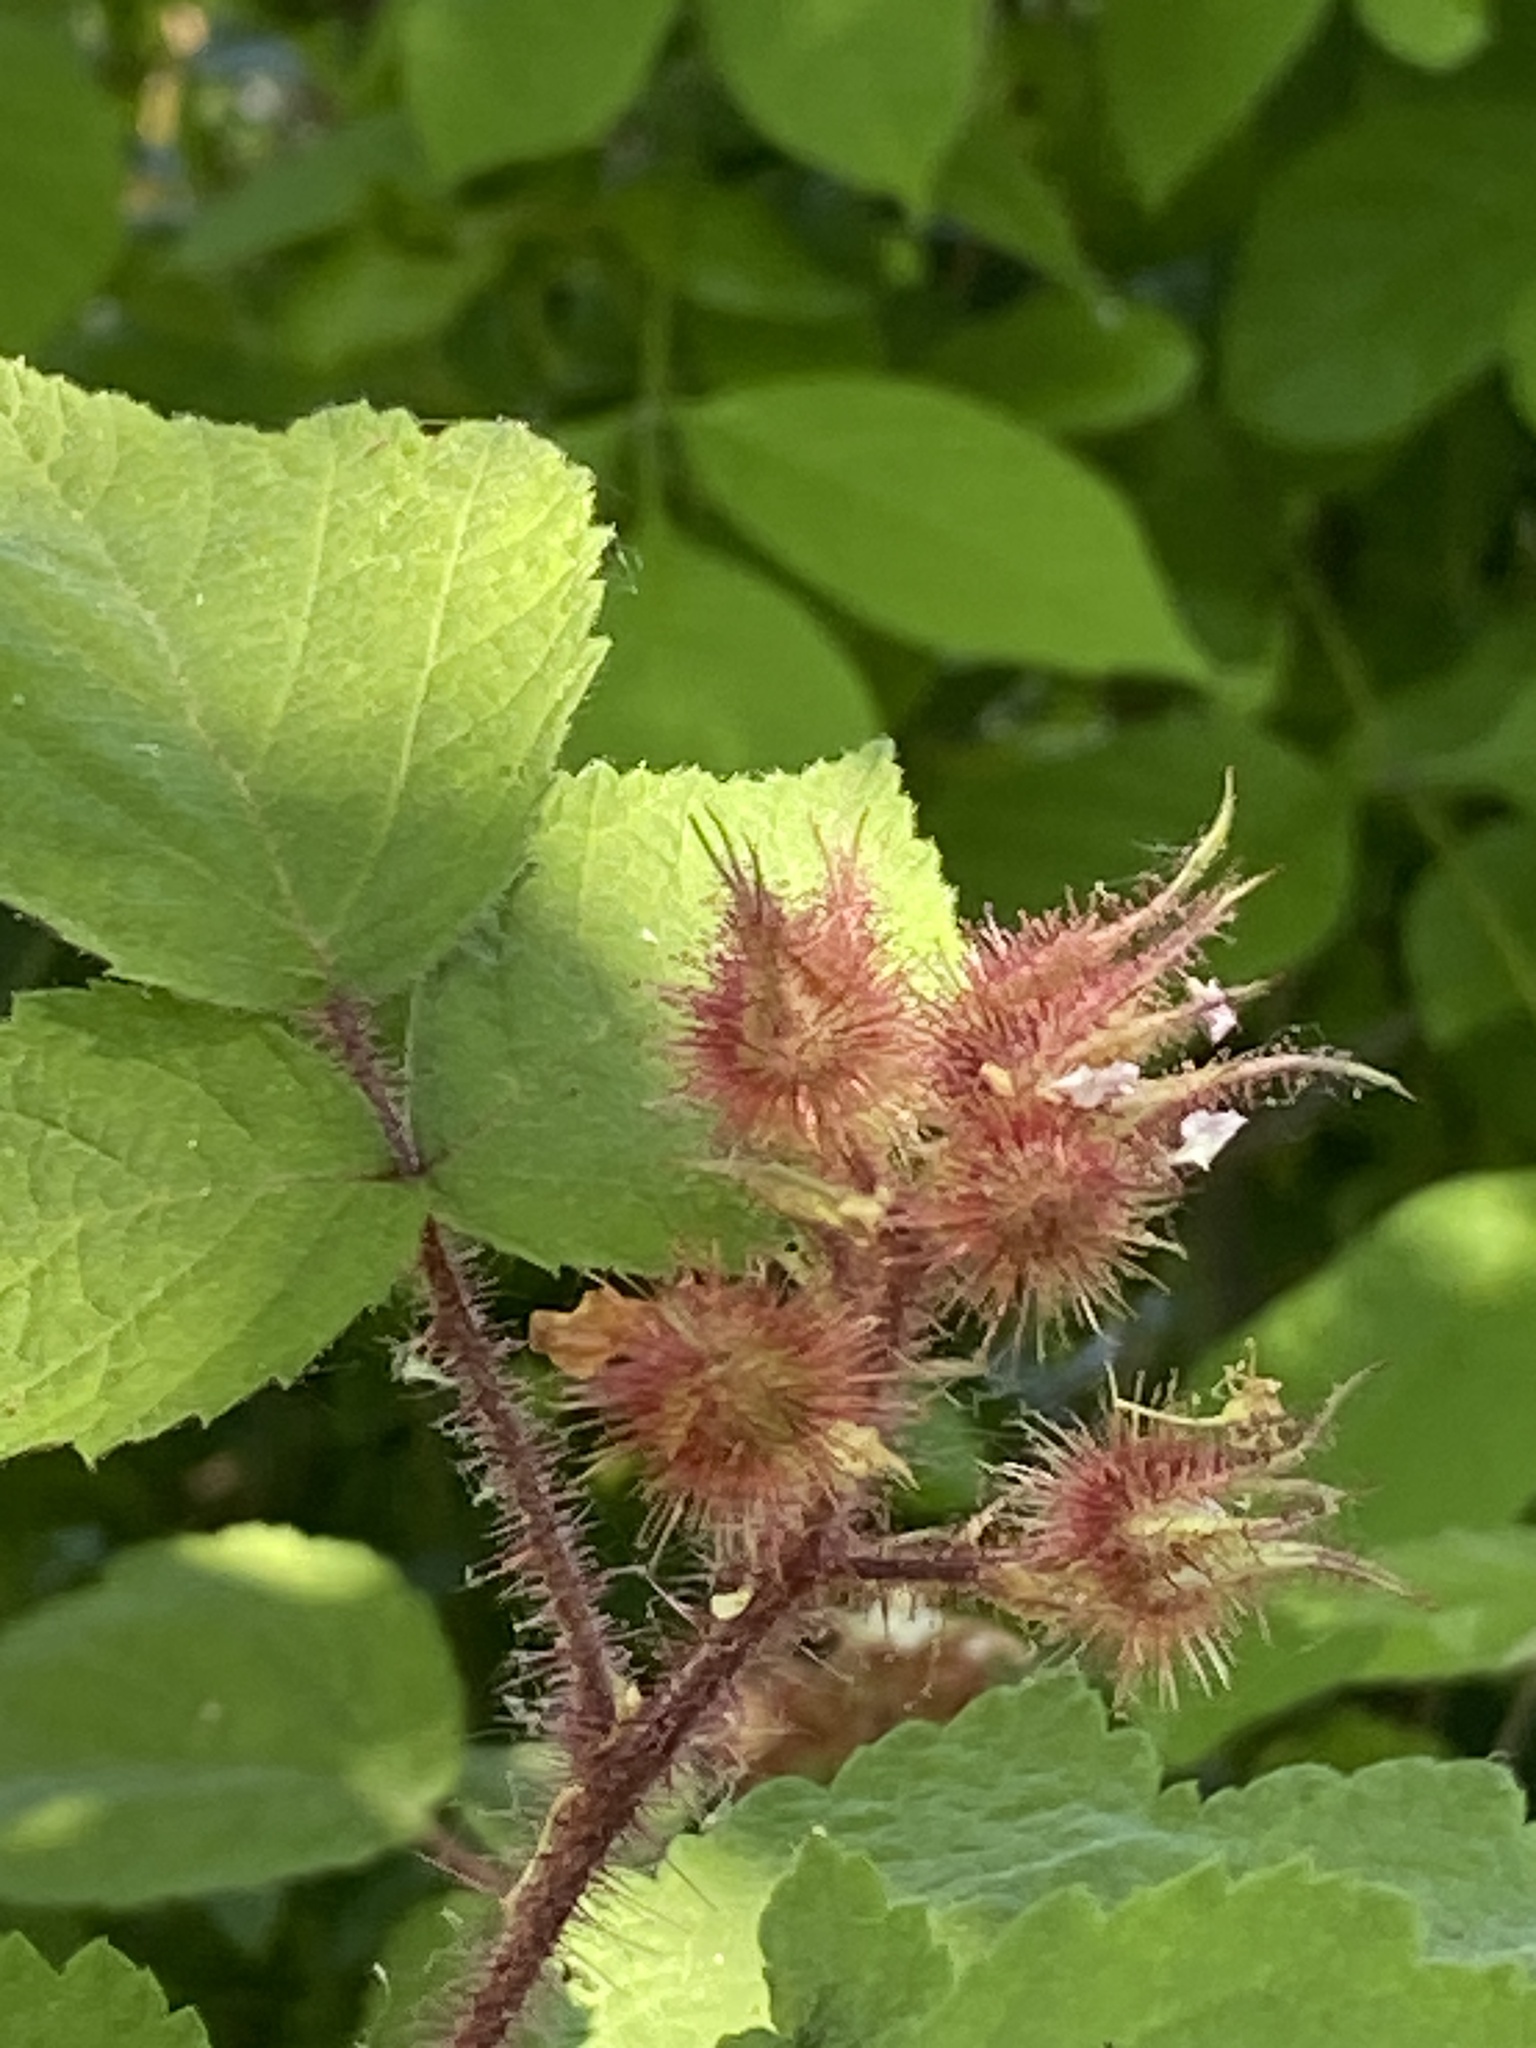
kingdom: Plantae
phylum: Tracheophyta
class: Magnoliopsida
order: Rosales
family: Rosaceae
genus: Rubus
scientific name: Rubus phoenicolasius
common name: Japanese wineberry
